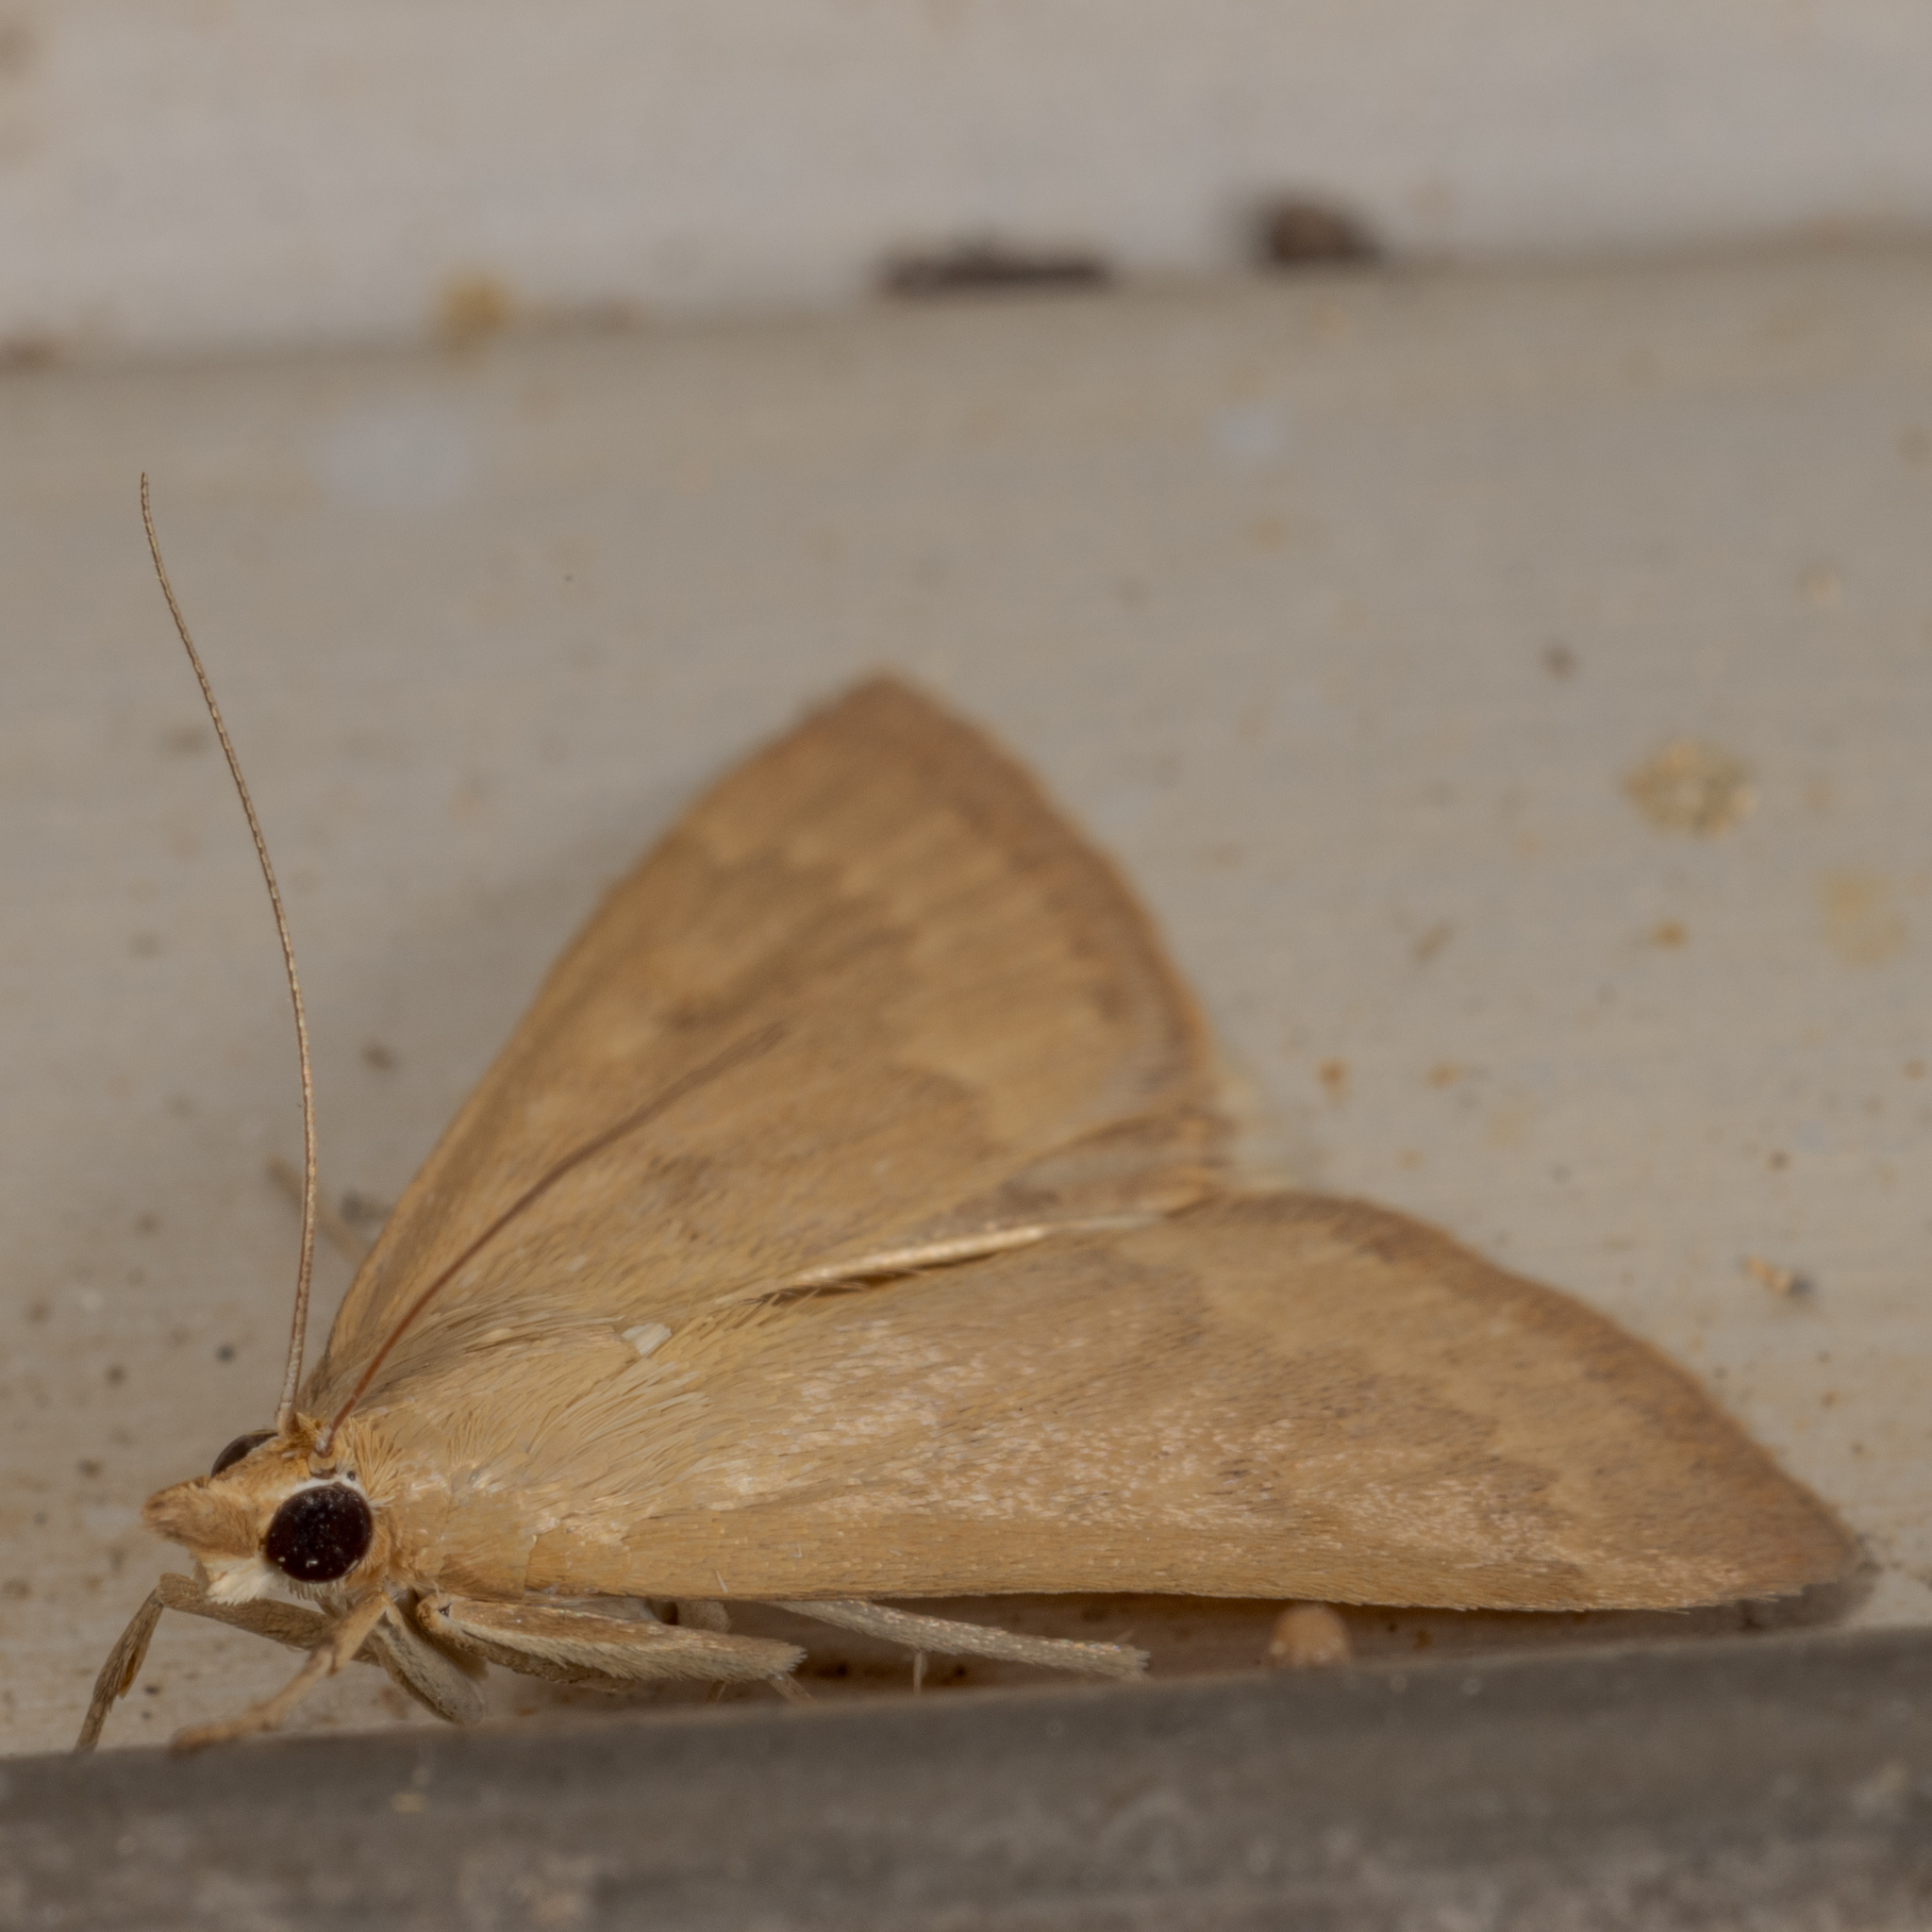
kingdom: Animalia
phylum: Arthropoda
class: Insecta
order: Lepidoptera
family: Crambidae
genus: Achyra
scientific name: Achyra rantalis
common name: Garden webworm
